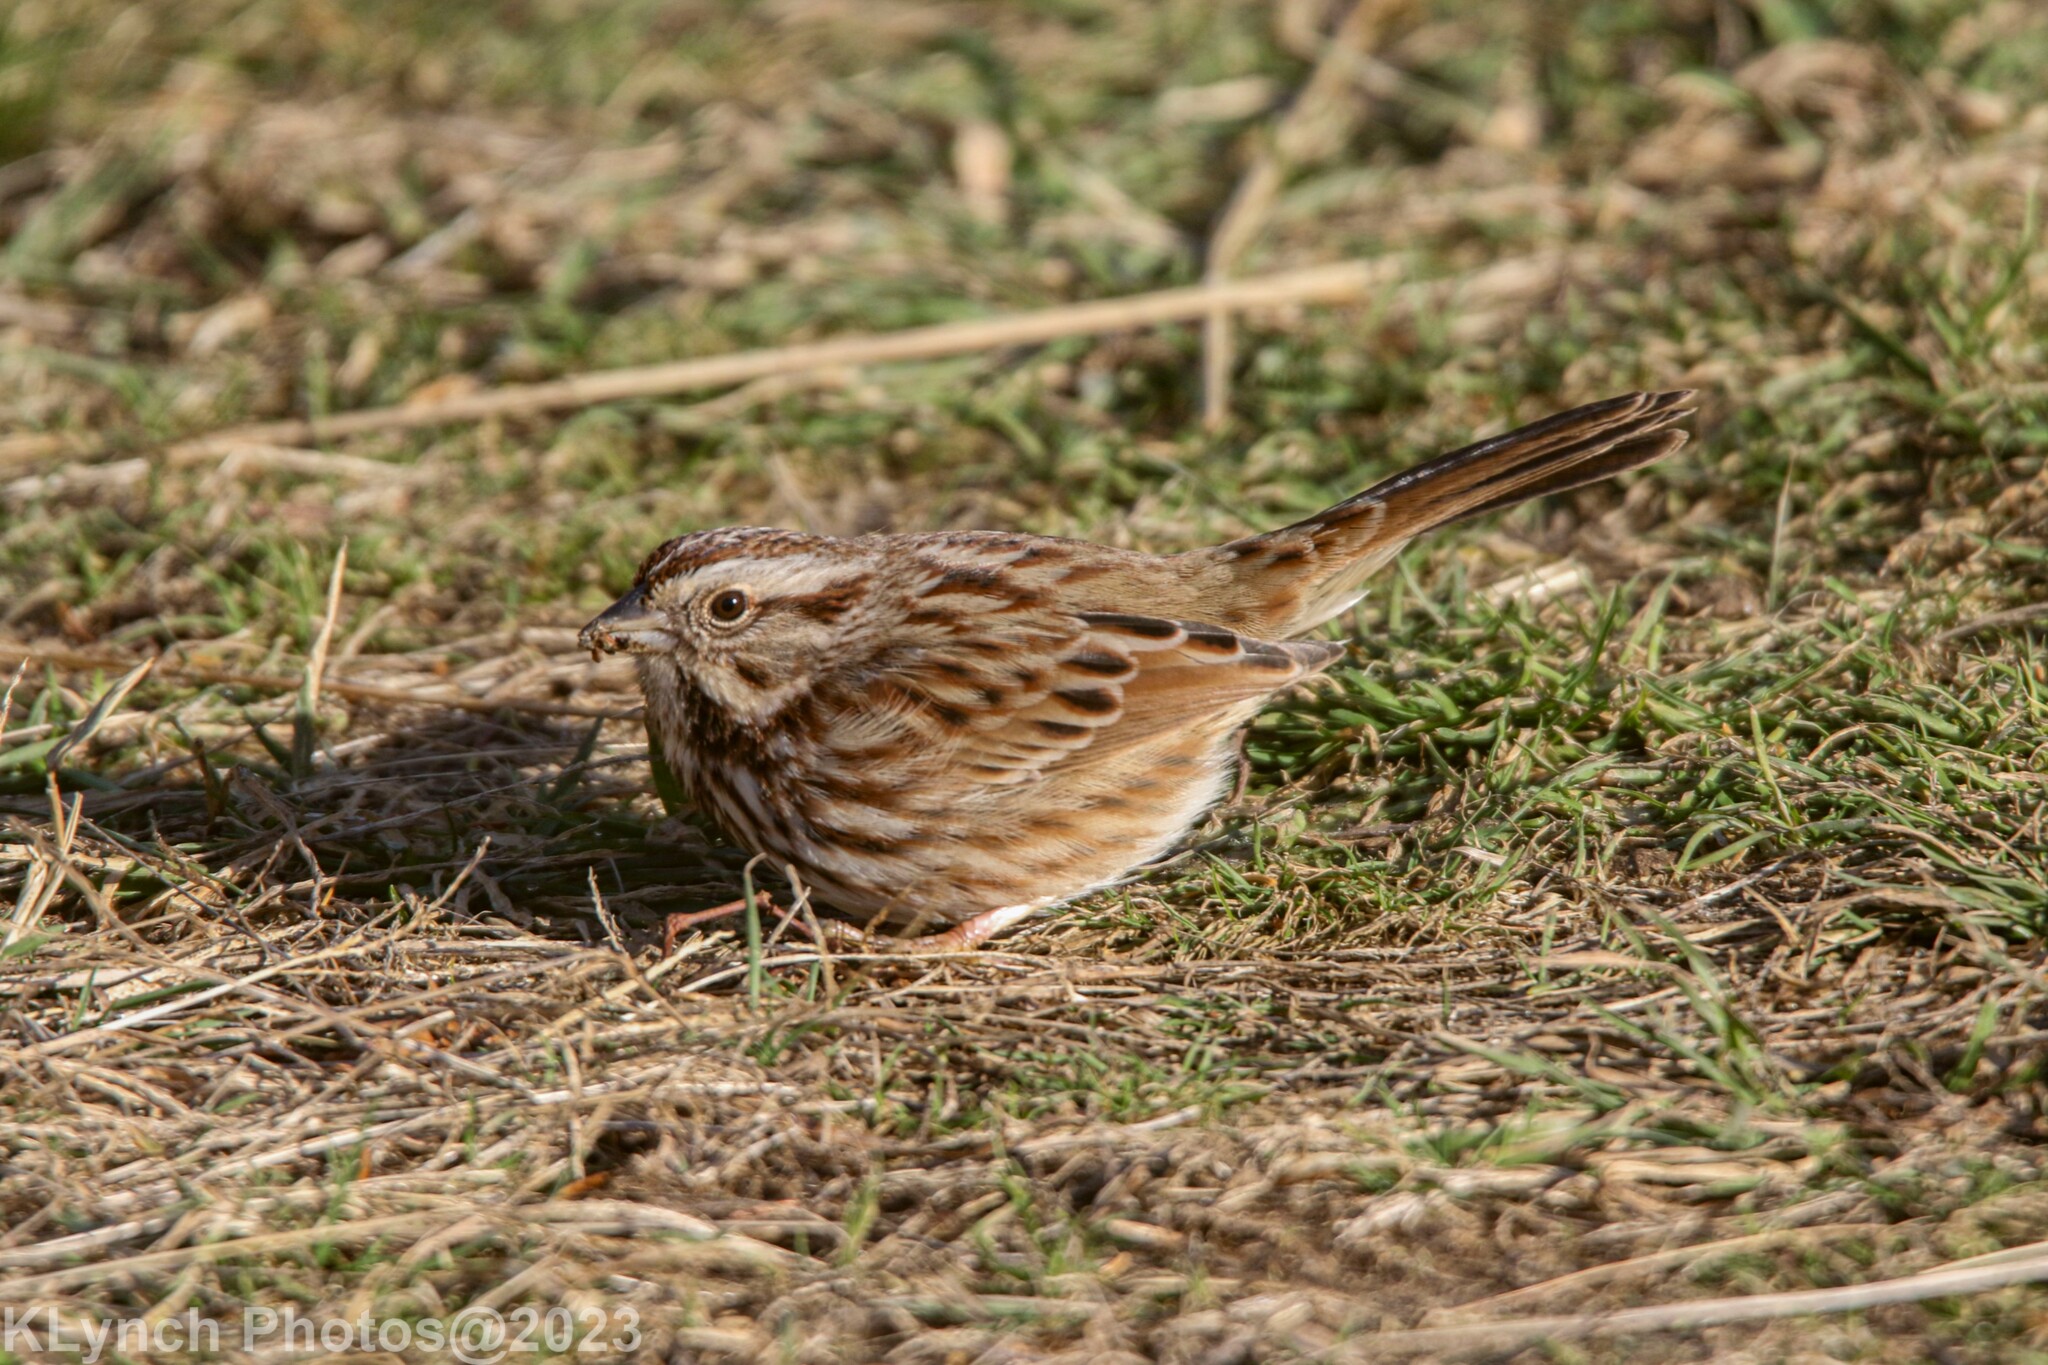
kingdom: Animalia
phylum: Chordata
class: Aves
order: Passeriformes
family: Passerellidae
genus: Melospiza
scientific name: Melospiza melodia
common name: Song sparrow
